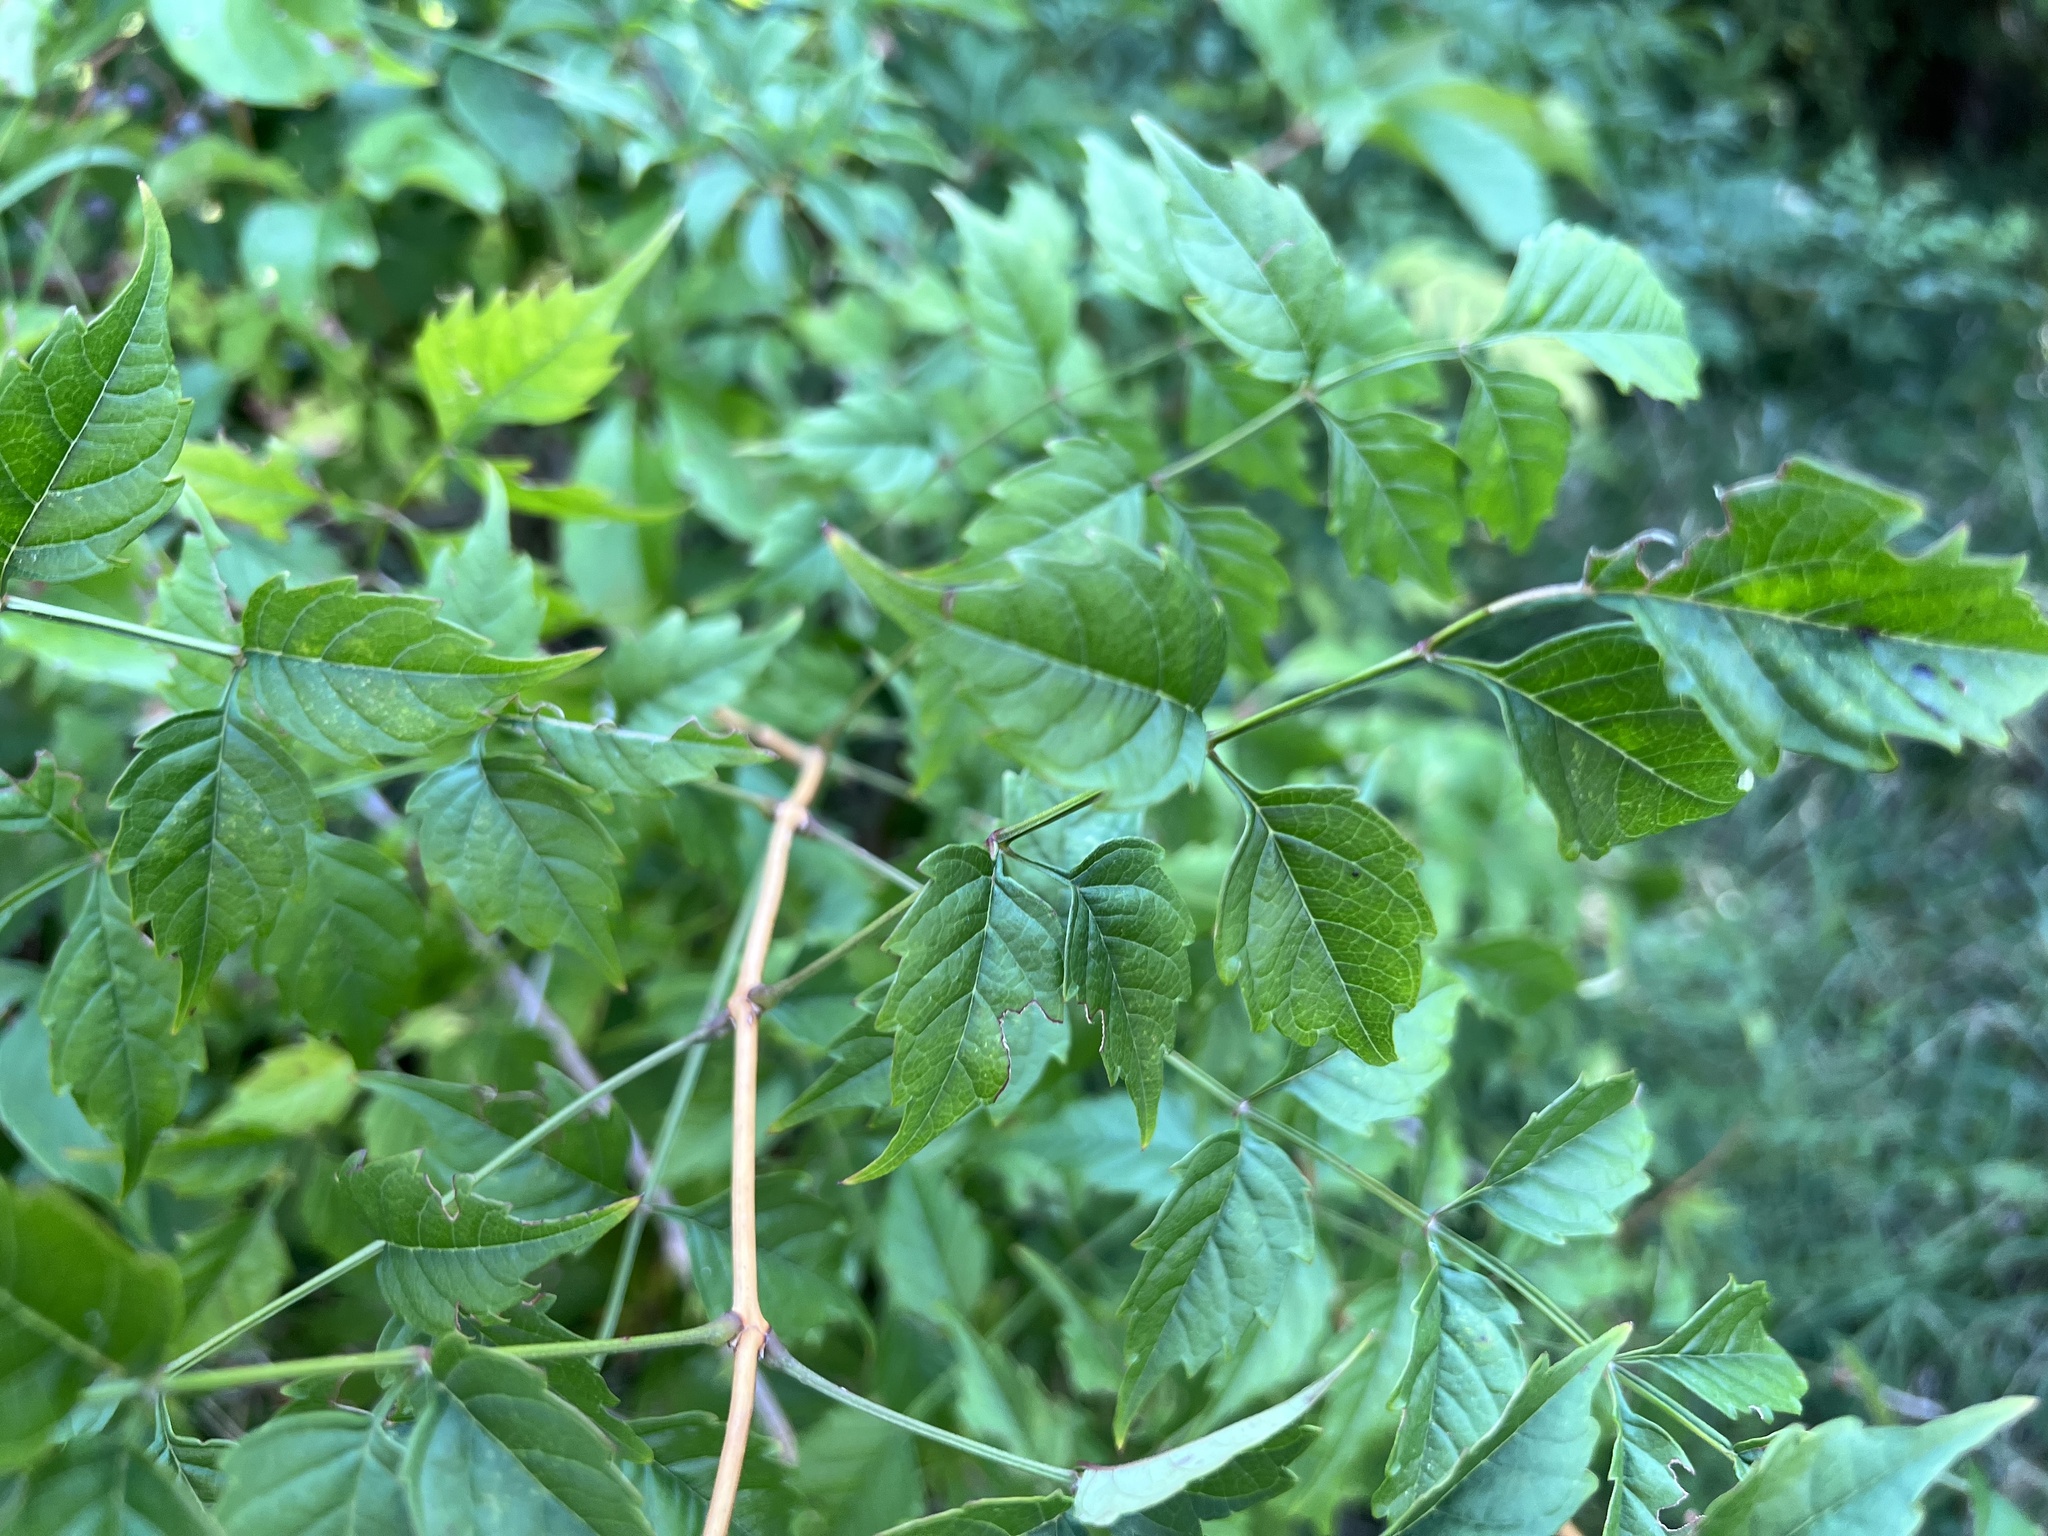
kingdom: Plantae
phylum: Tracheophyta
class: Magnoliopsida
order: Lamiales
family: Bignoniaceae
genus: Campsis
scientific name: Campsis radicans
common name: Trumpet-creeper
